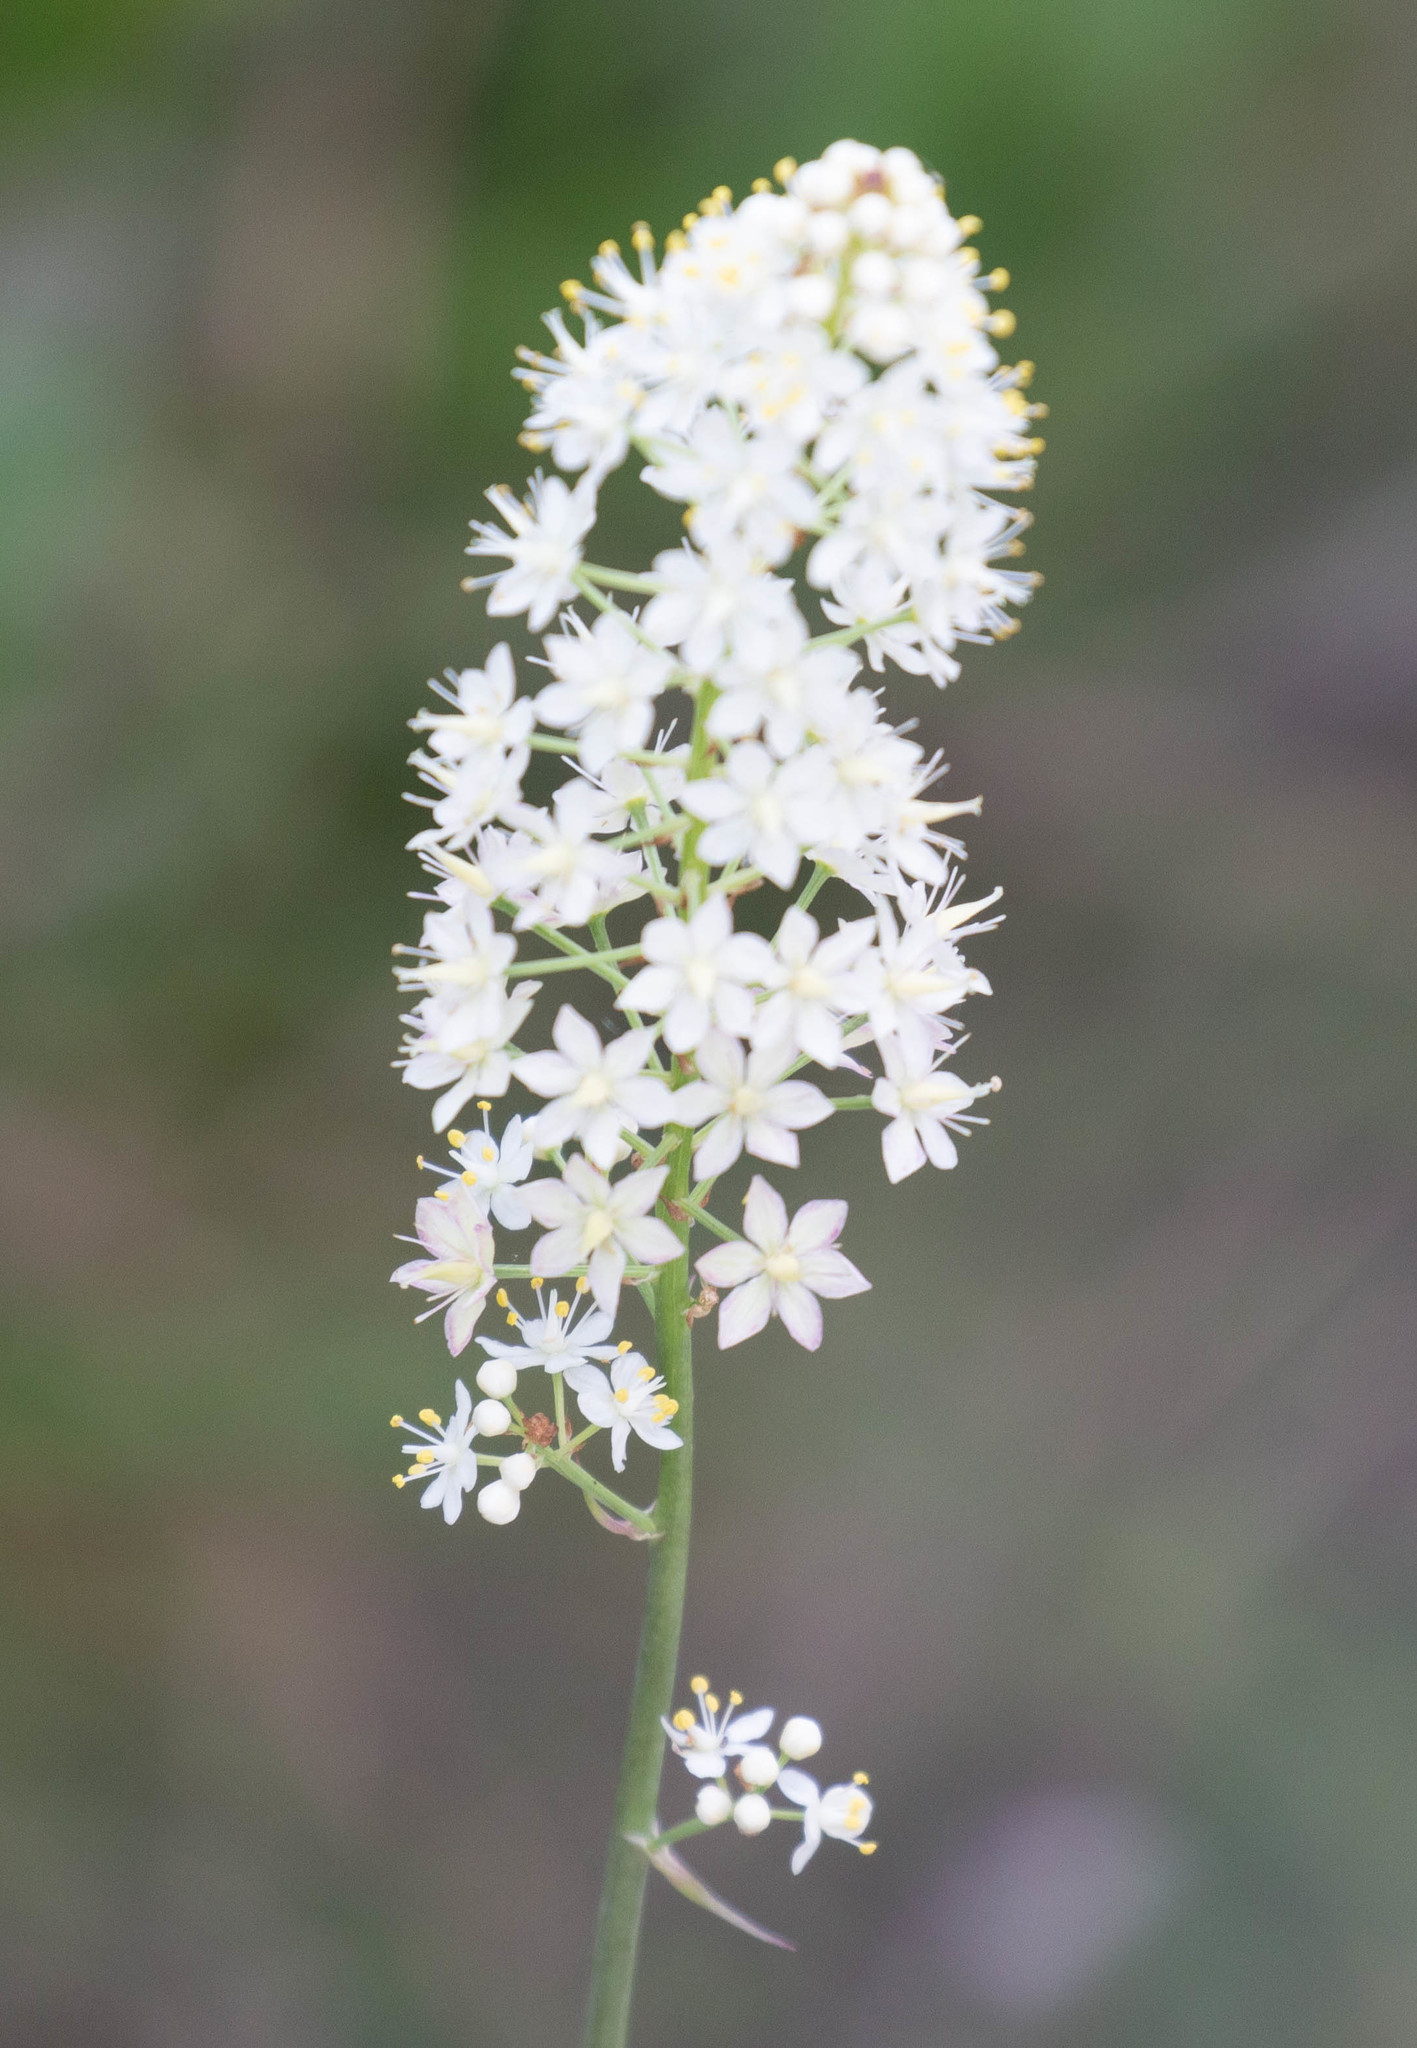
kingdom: Plantae
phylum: Tracheophyta
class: Liliopsida
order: Liliales
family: Melanthiaceae
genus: Amianthium
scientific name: Amianthium muscitoxicum
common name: Fly-poison
